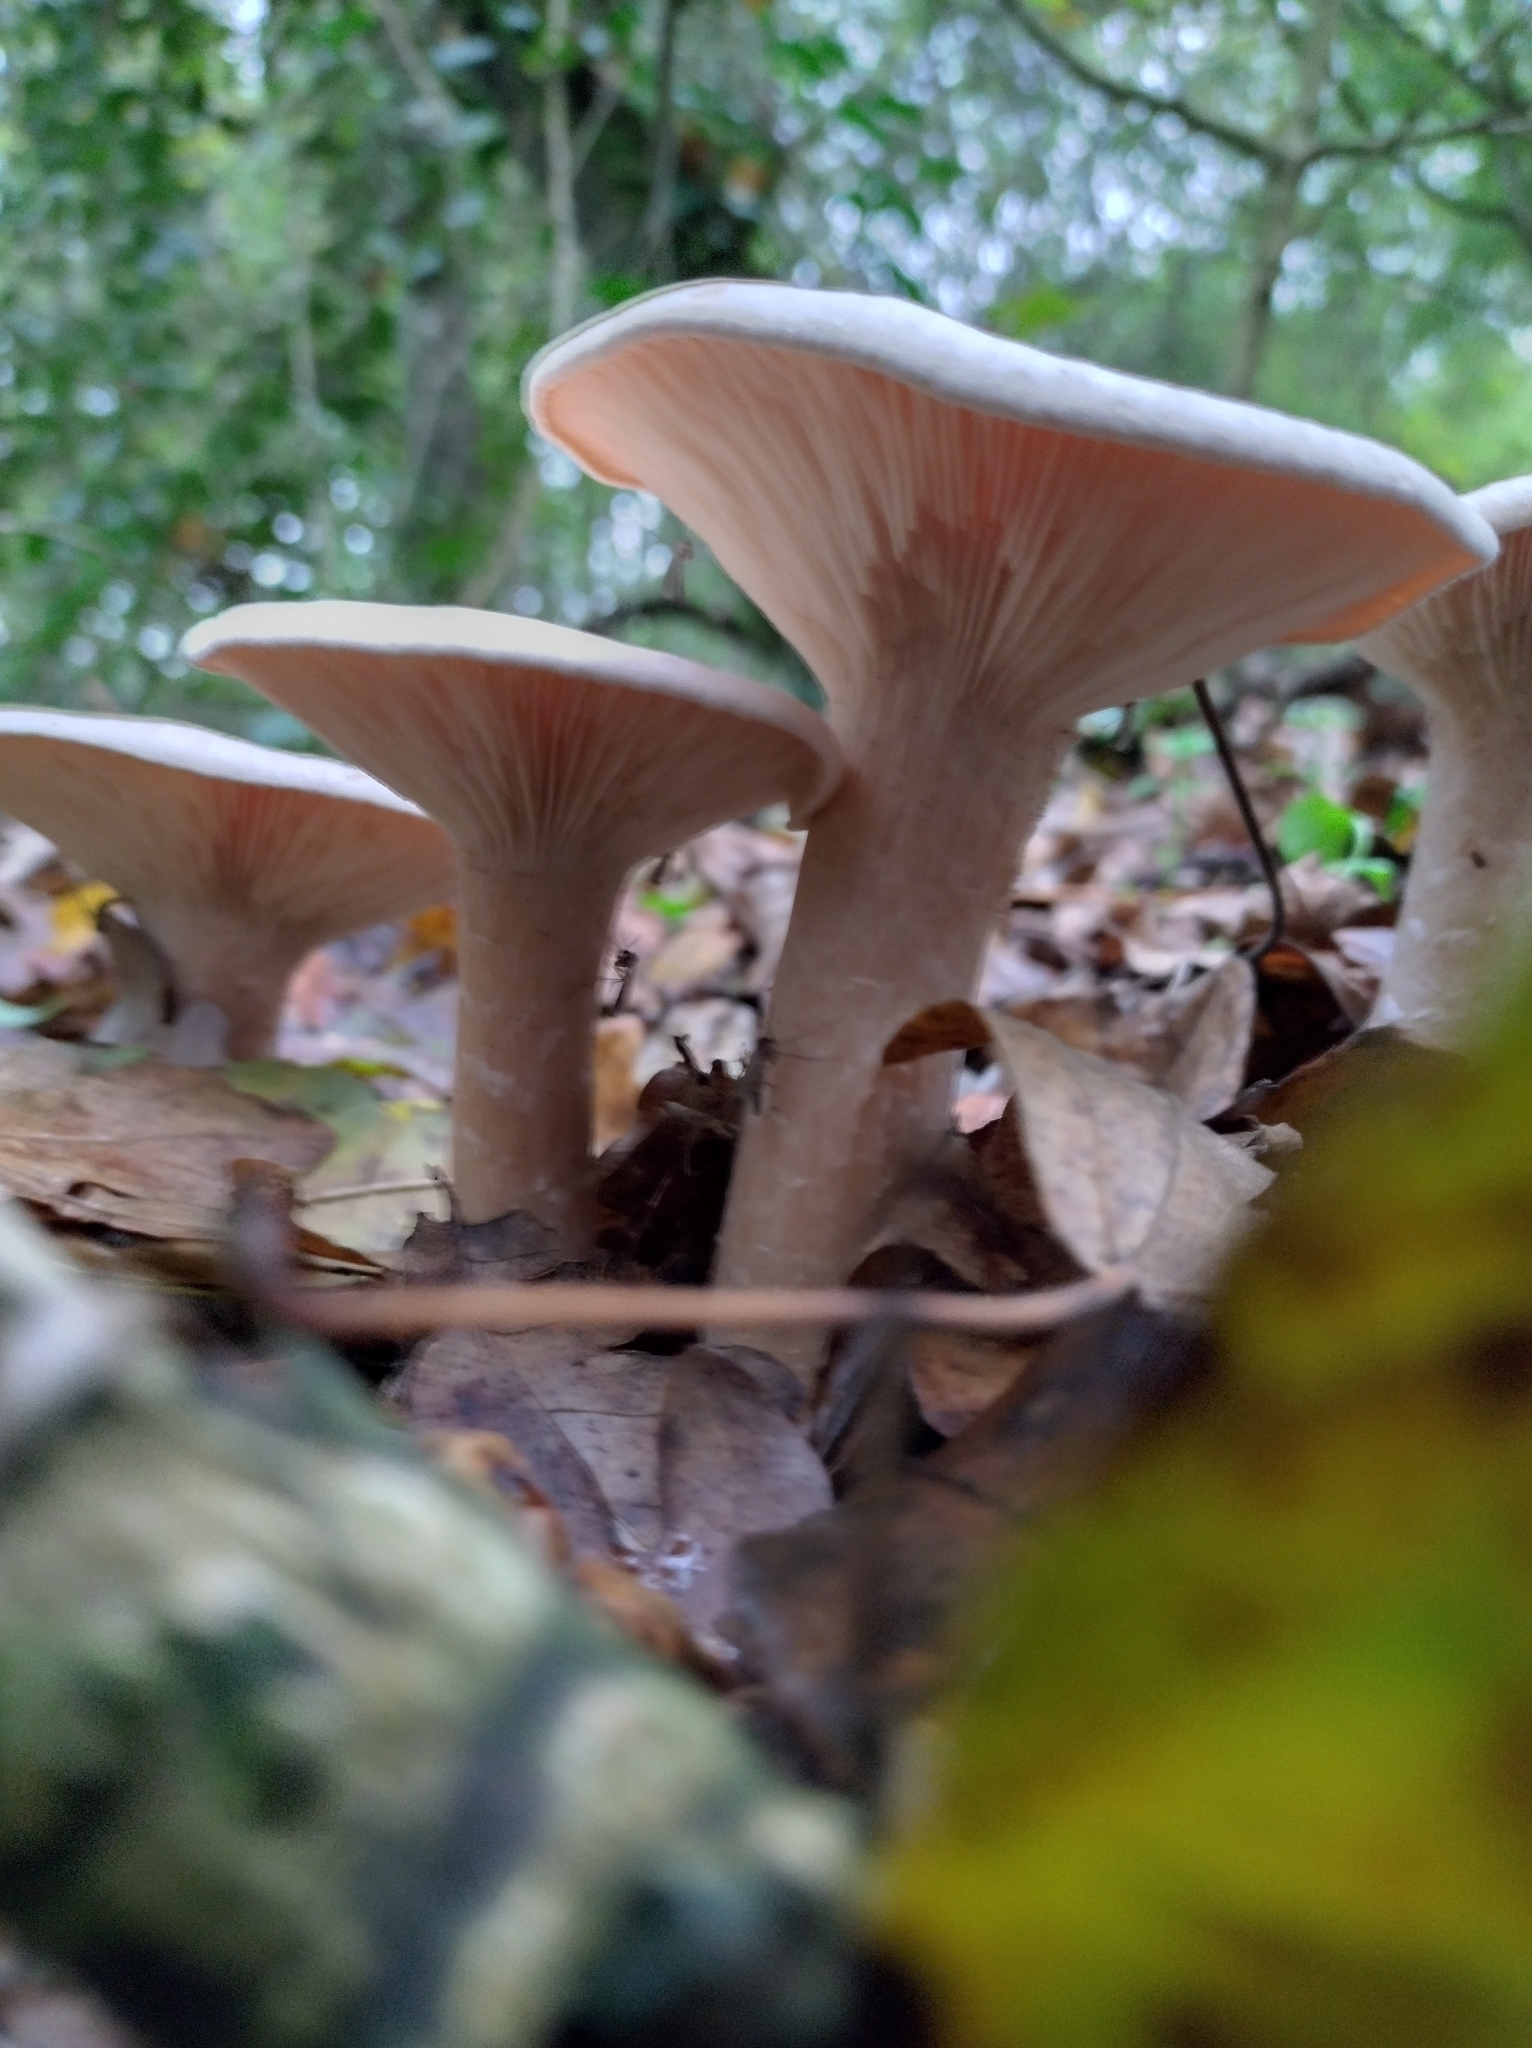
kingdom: Fungi
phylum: Basidiomycota
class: Agaricomycetes
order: Agaricales
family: Tricholomataceae
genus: Infundibulicybe
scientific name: Infundibulicybe geotropa
